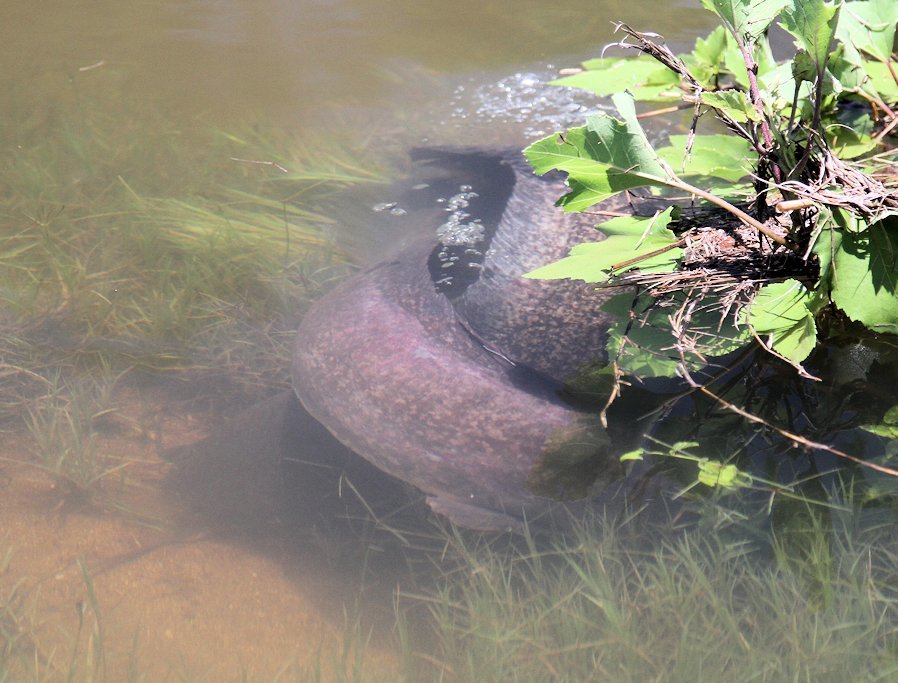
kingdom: Animalia
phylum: Chordata
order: Siluriformes
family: Clariidae
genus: Clarias
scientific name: Clarias gariepinus
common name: African catfish
